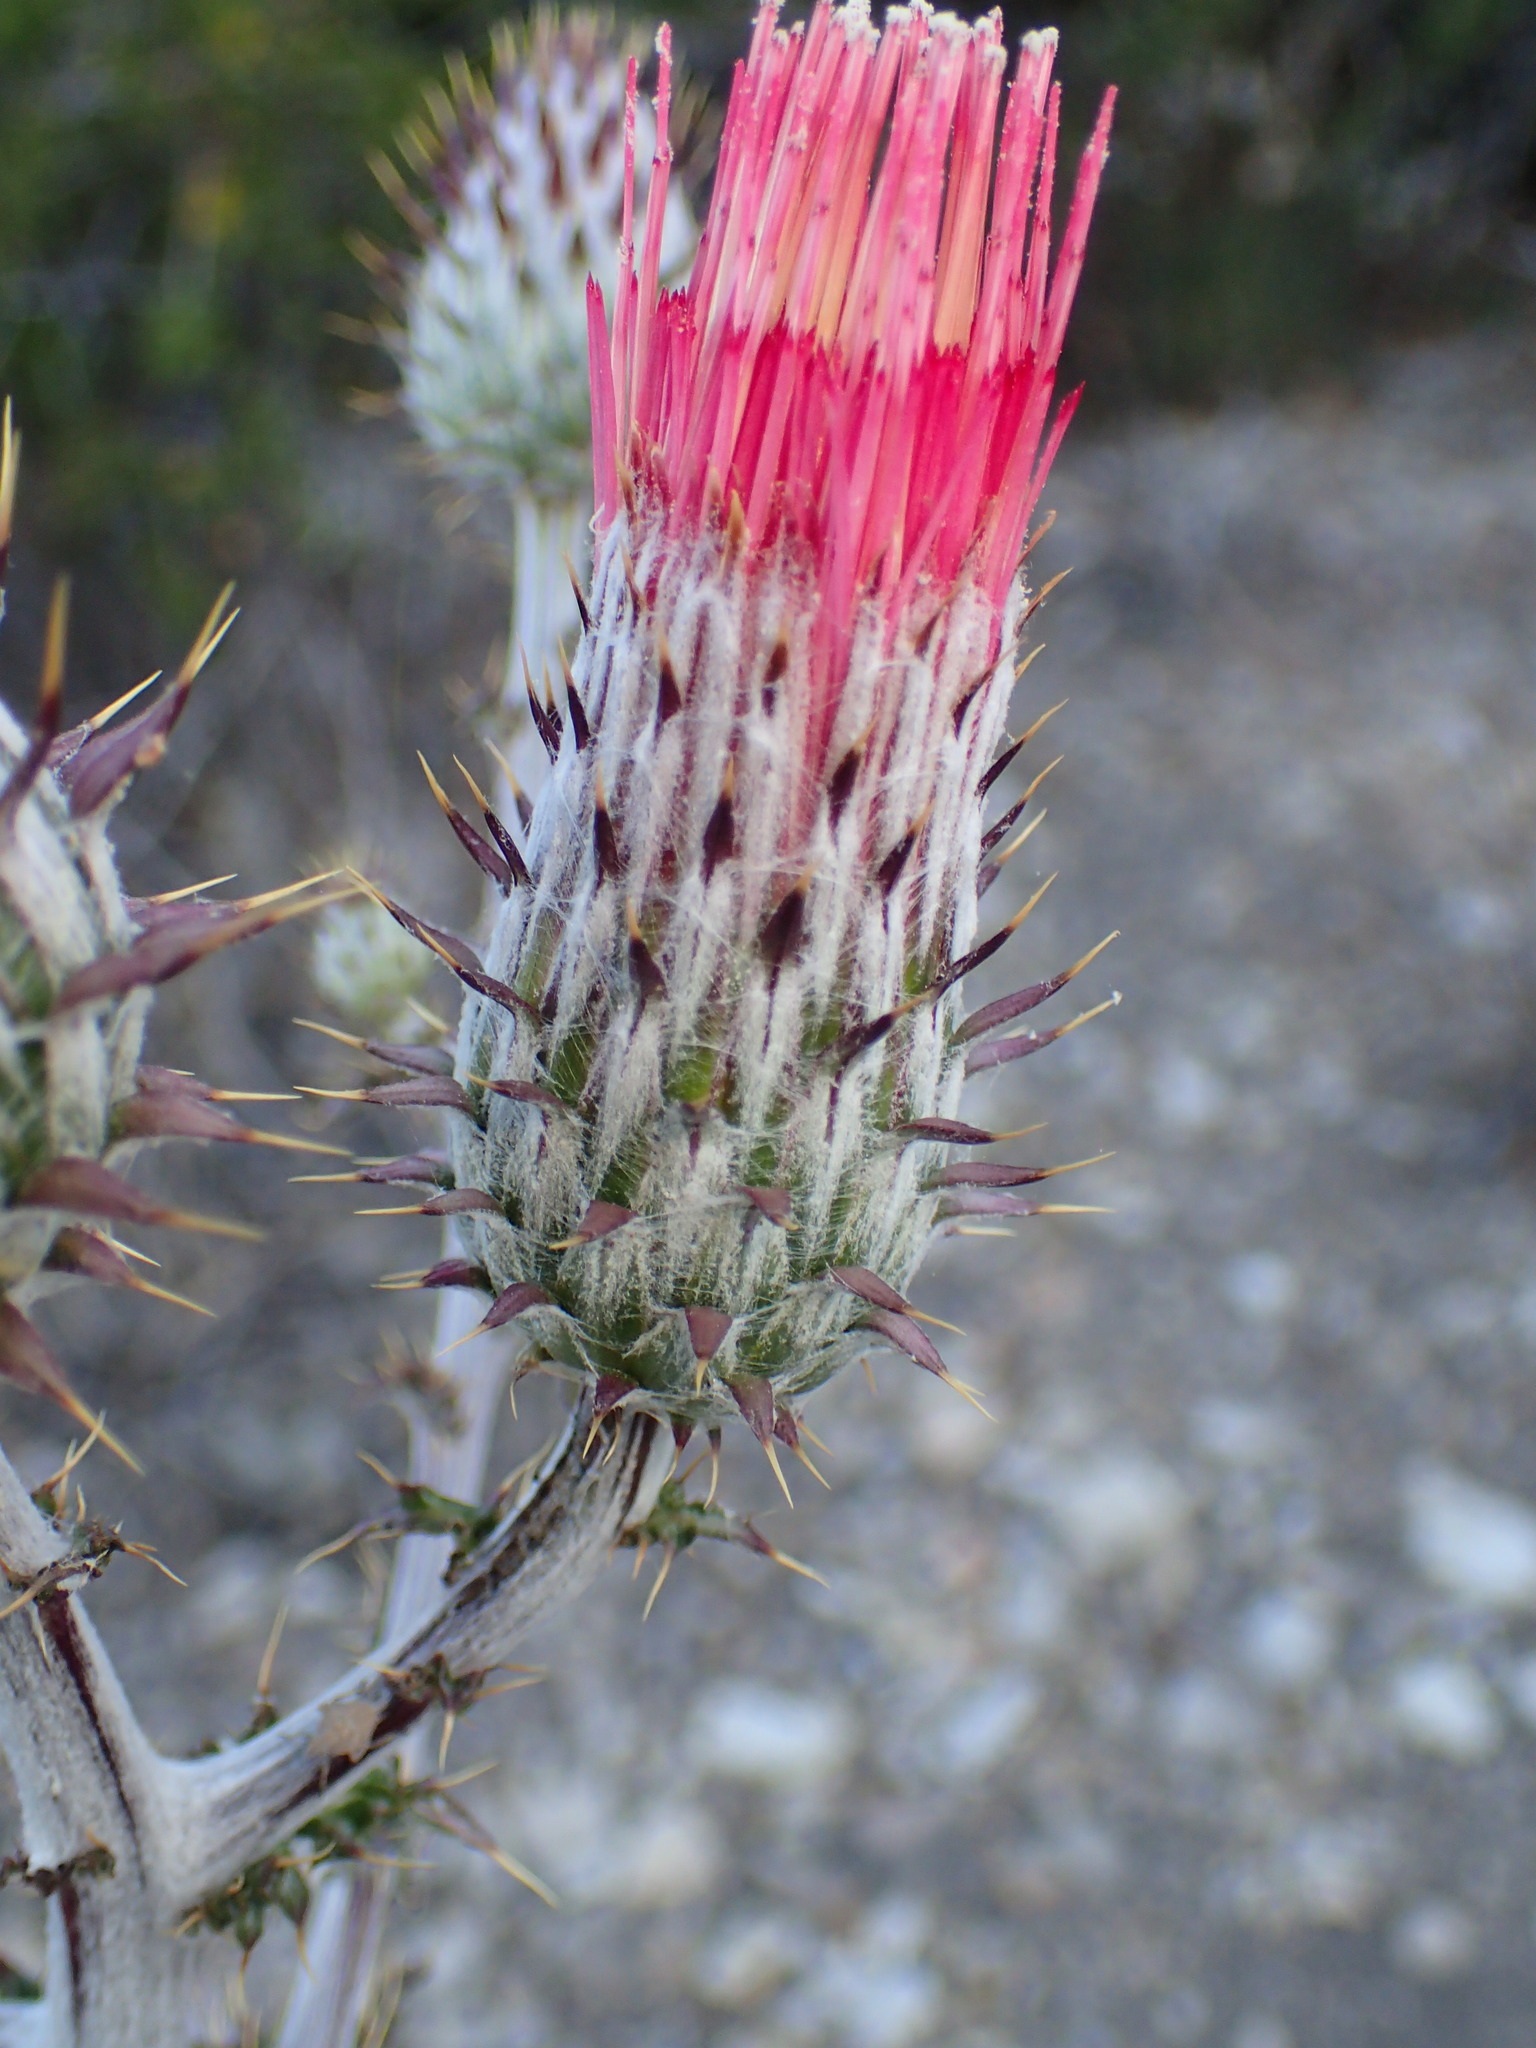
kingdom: Plantae
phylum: Tracheophyta
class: Magnoliopsida
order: Asterales
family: Asteraceae
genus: Cirsium
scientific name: Cirsium occidentale
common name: Western thistle
